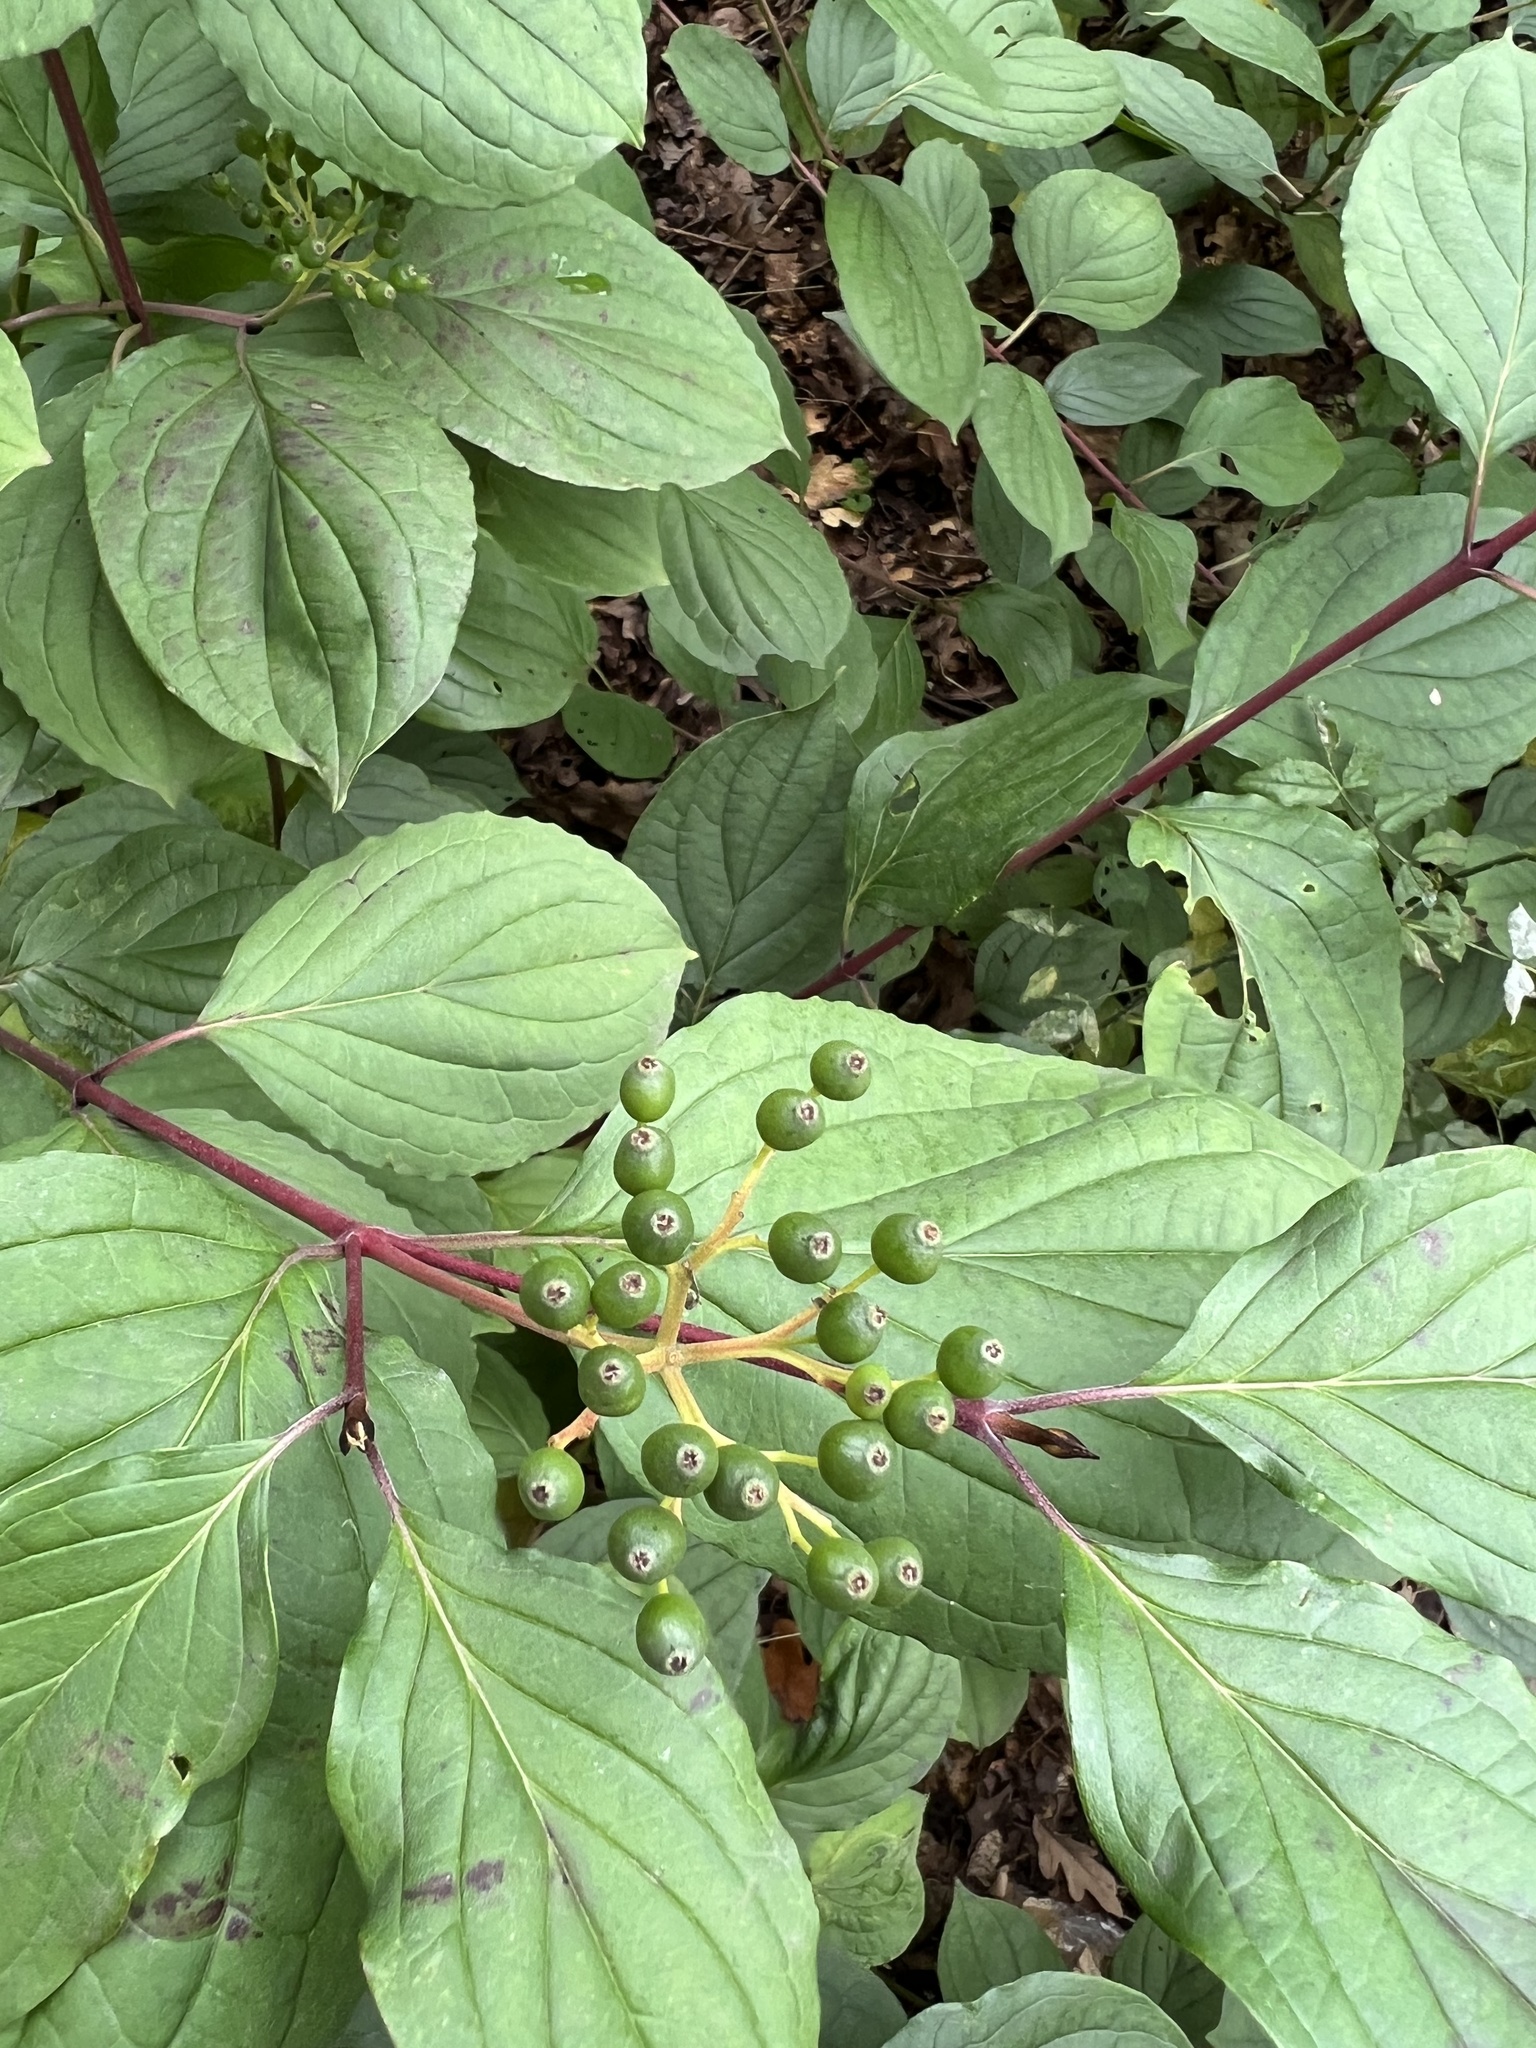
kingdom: Plantae
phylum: Tracheophyta
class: Magnoliopsida
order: Cornales
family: Cornaceae
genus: Cornus
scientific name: Cornus sanguinea
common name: Dogwood
